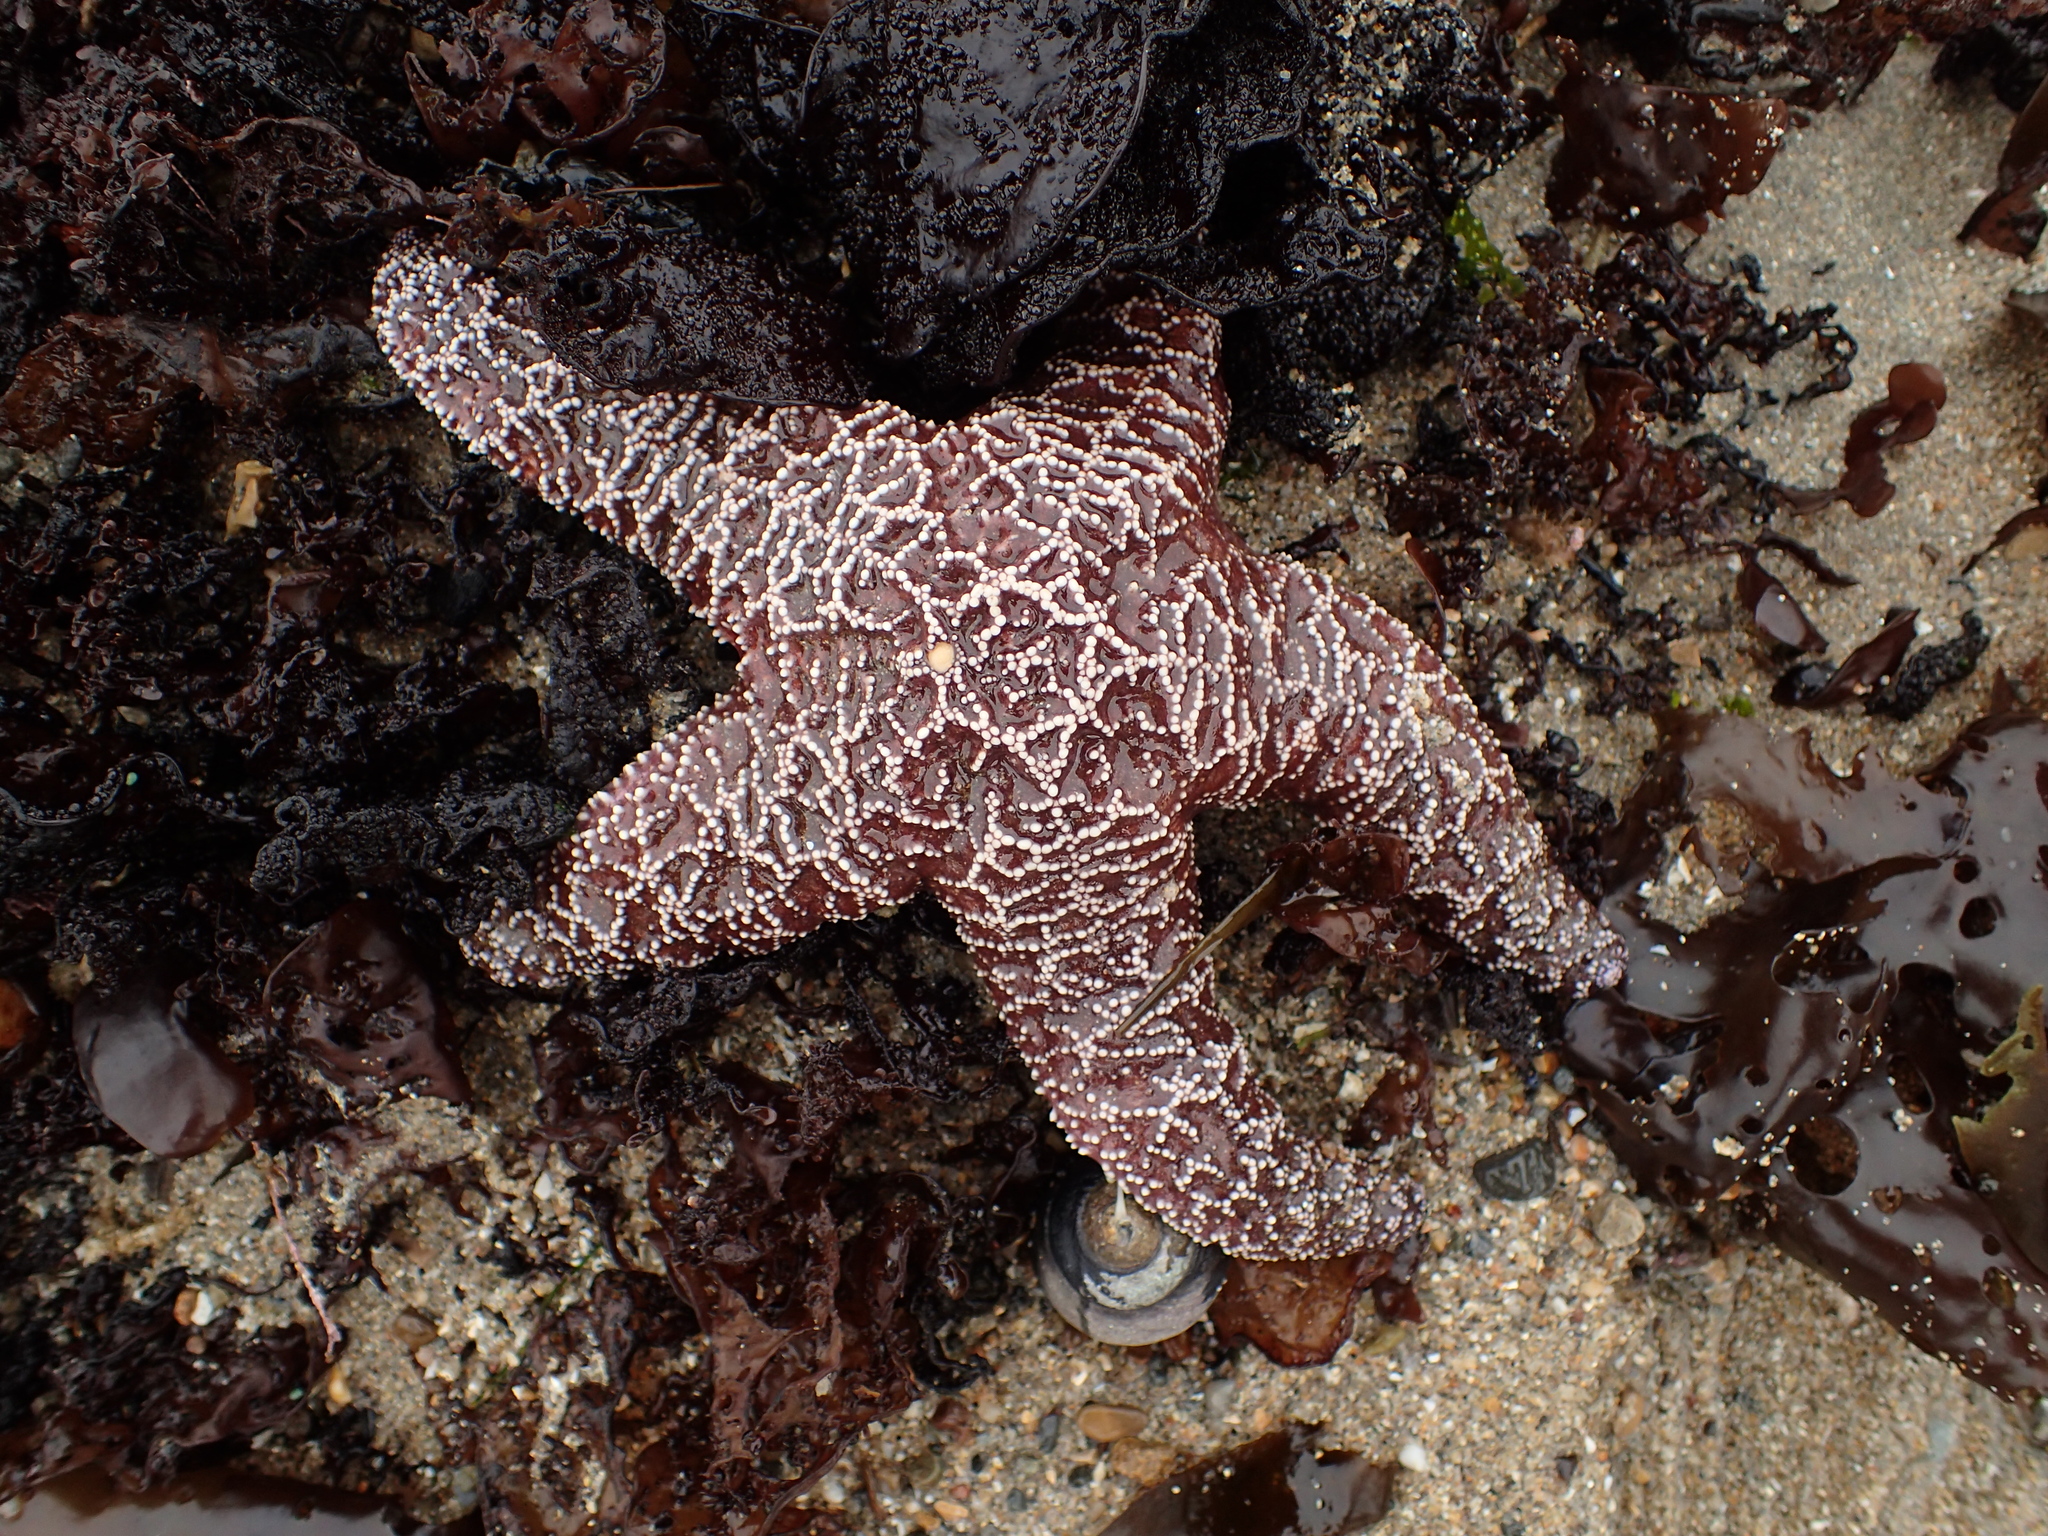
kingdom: Animalia
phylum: Echinodermata
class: Asteroidea
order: Forcipulatida
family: Asteriidae
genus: Pisaster
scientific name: Pisaster ochraceus
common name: Ochre stars
